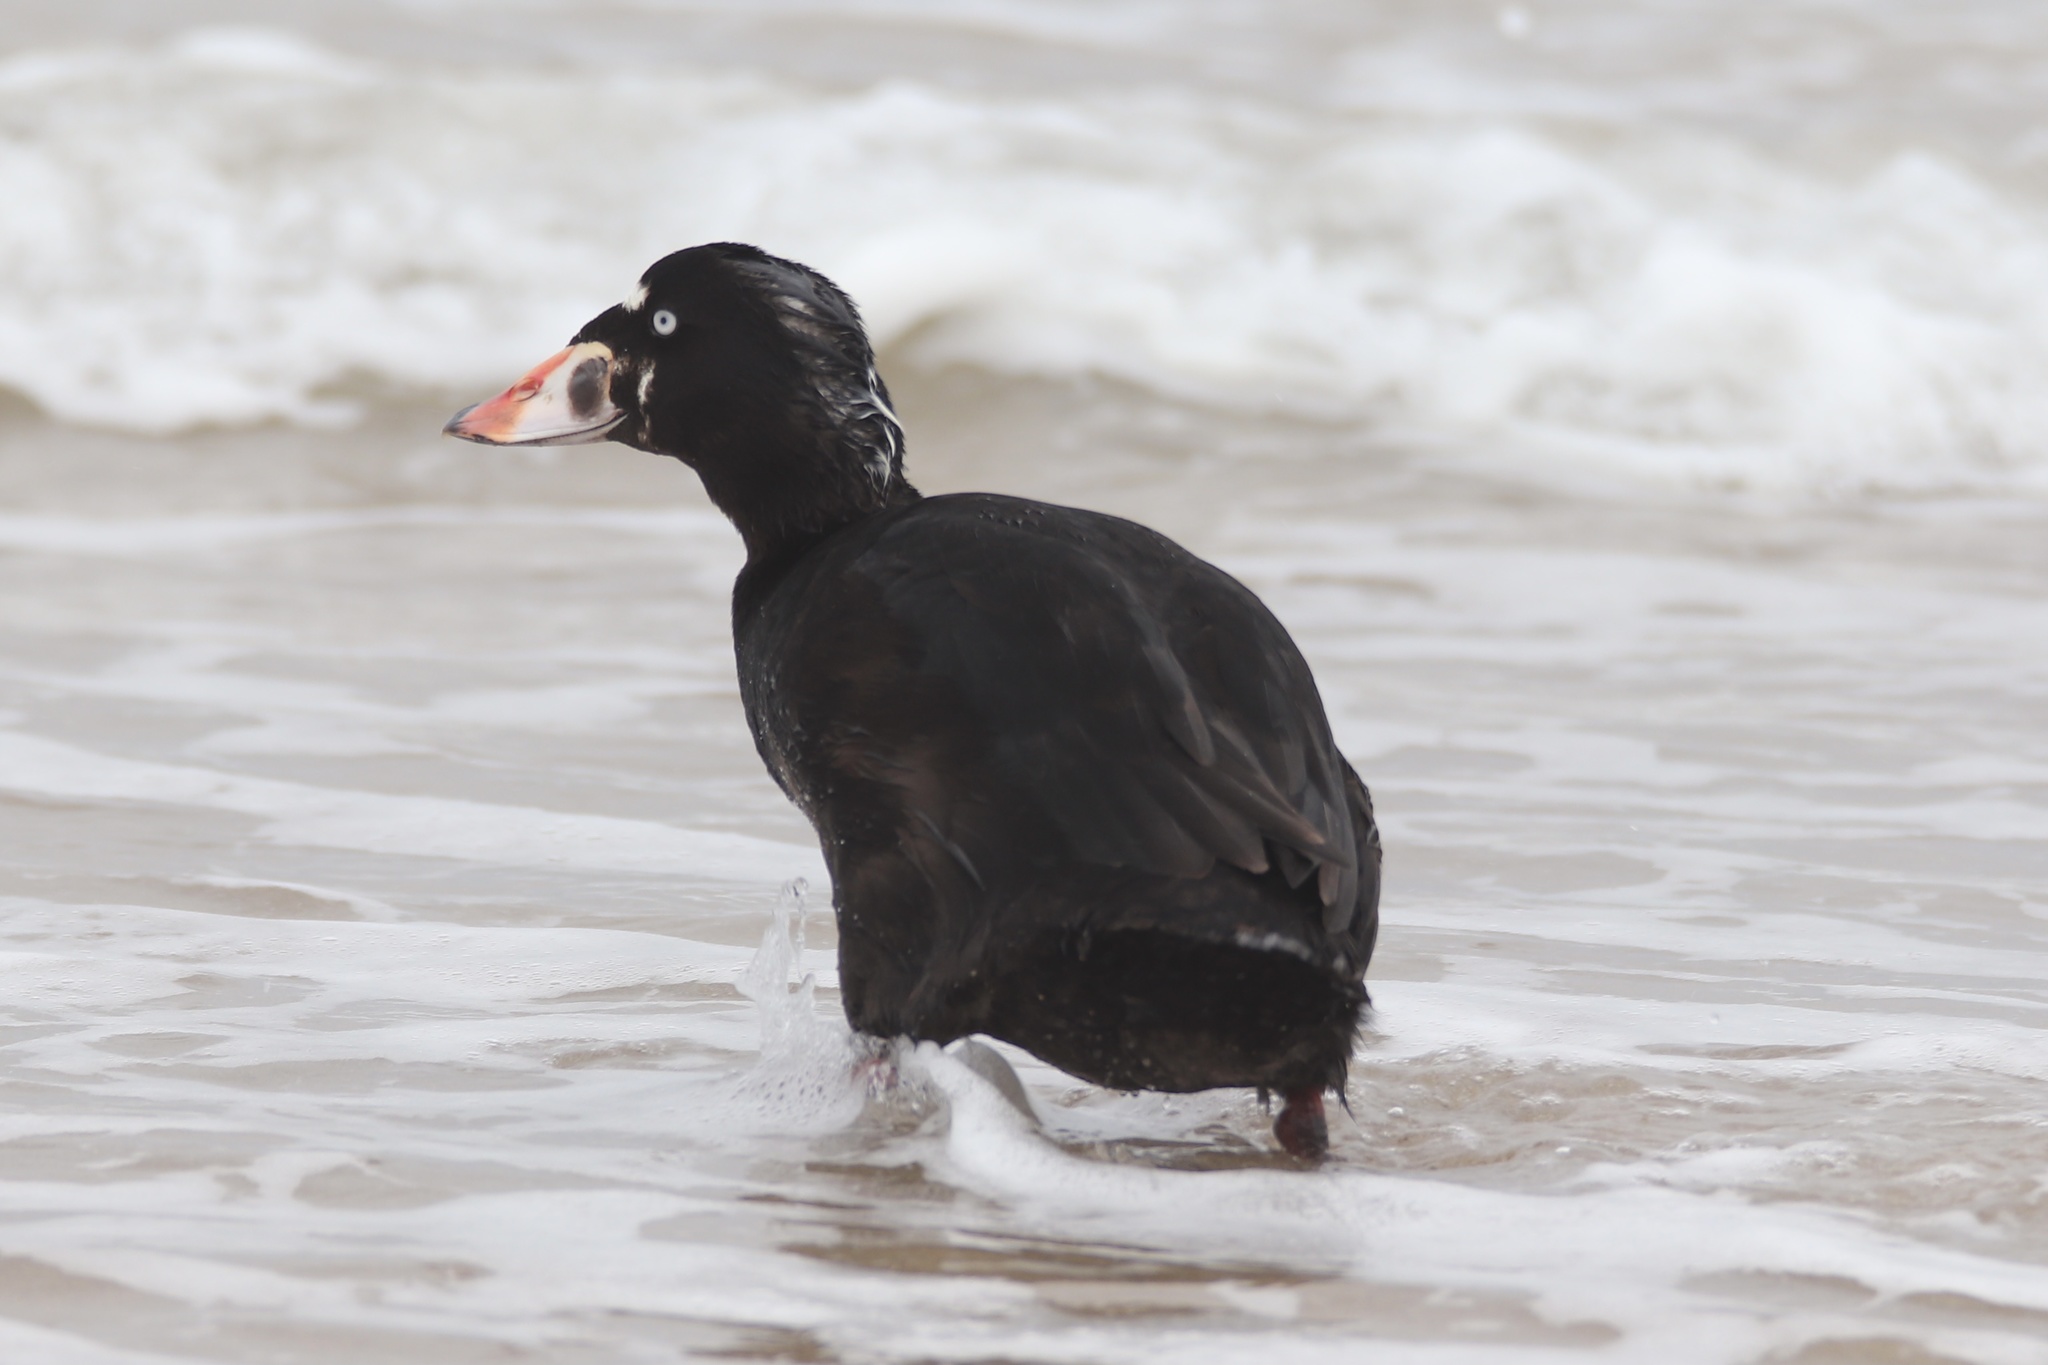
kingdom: Animalia
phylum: Chordata
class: Aves
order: Anseriformes
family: Anatidae
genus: Melanitta
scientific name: Melanitta perspicillata
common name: Surf scoter
